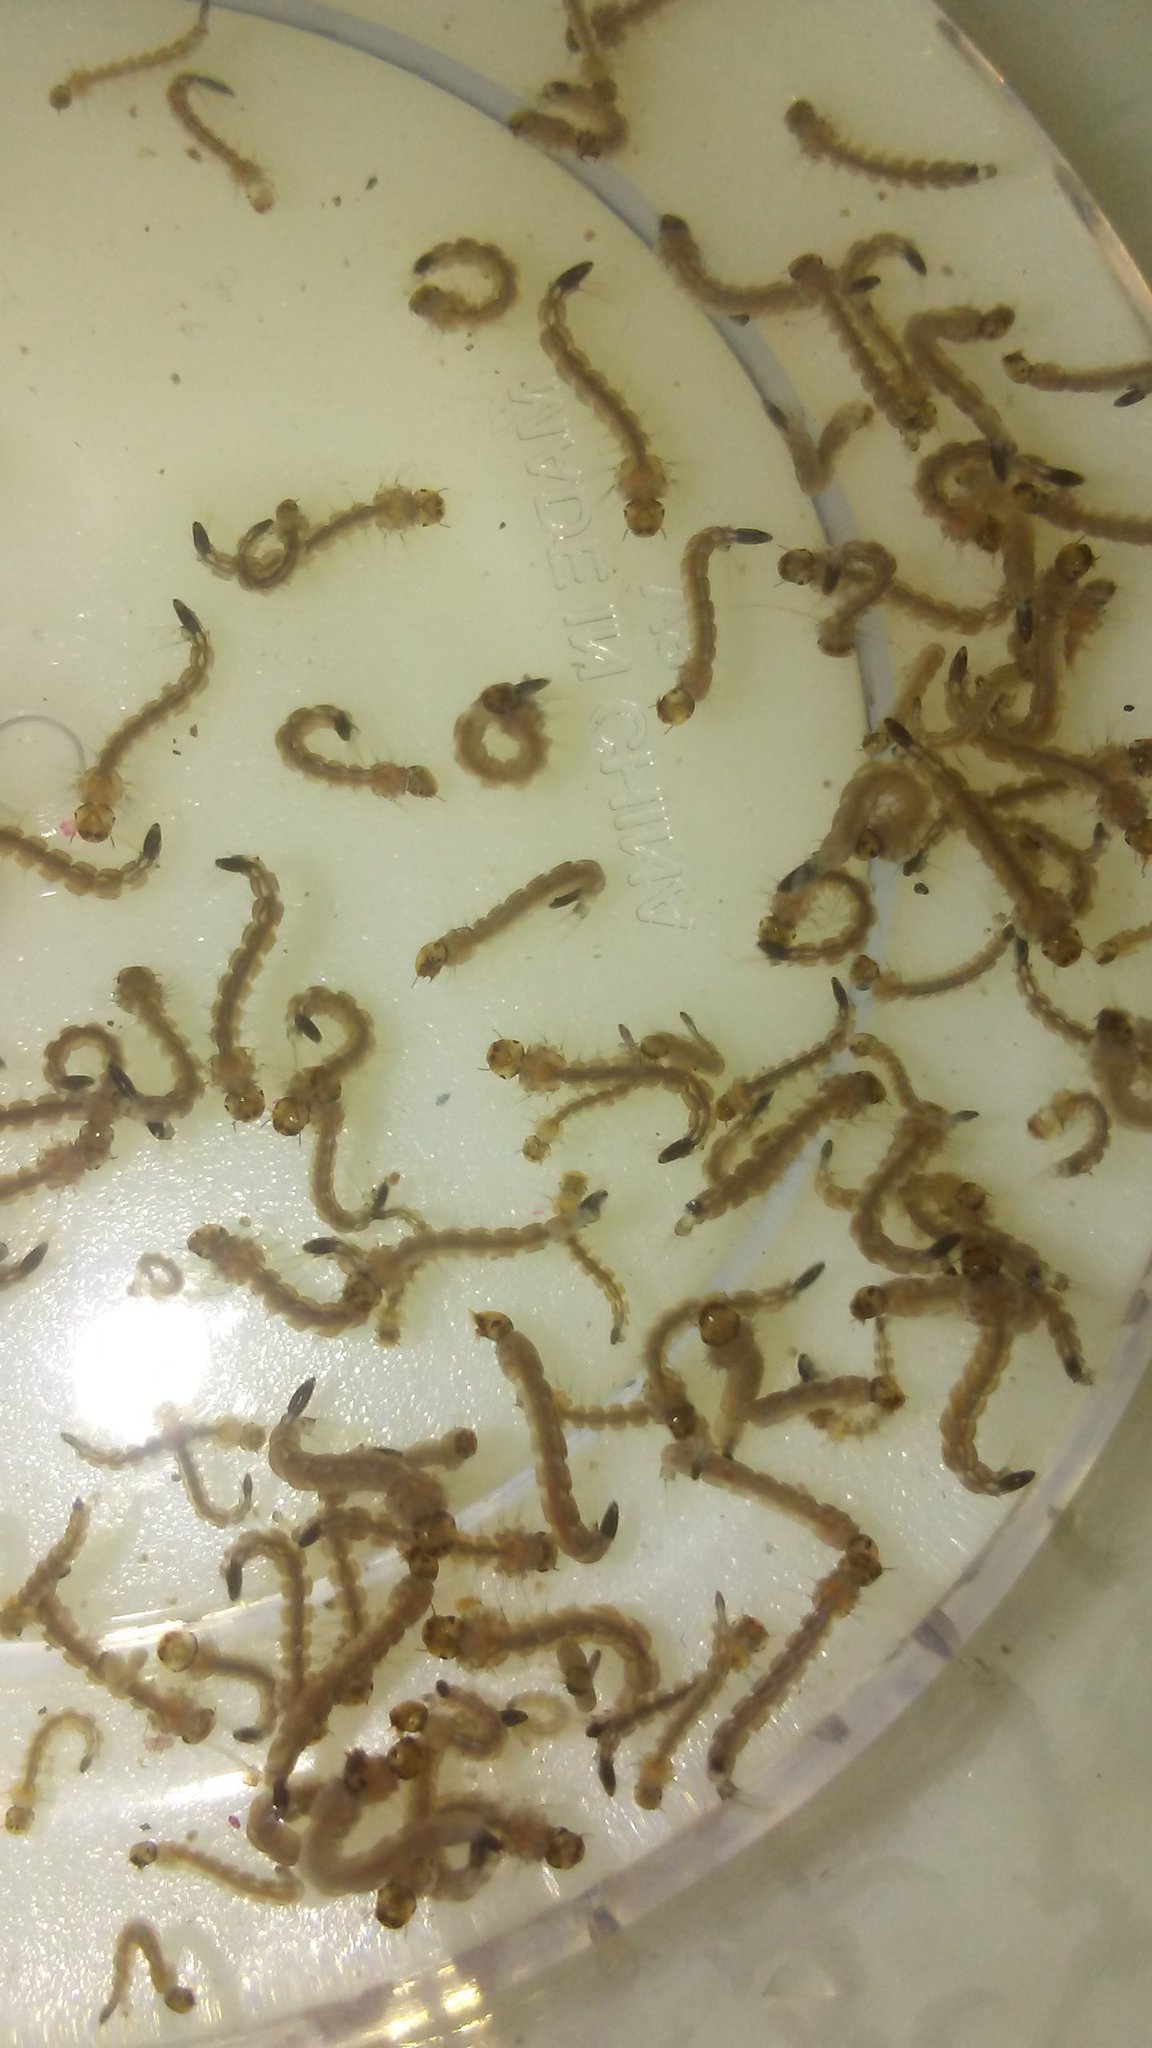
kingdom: Animalia
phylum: Arthropoda
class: Insecta
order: Diptera
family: Culicidae
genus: Aedes
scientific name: Aedes albopictus
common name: Tiger mosquito
